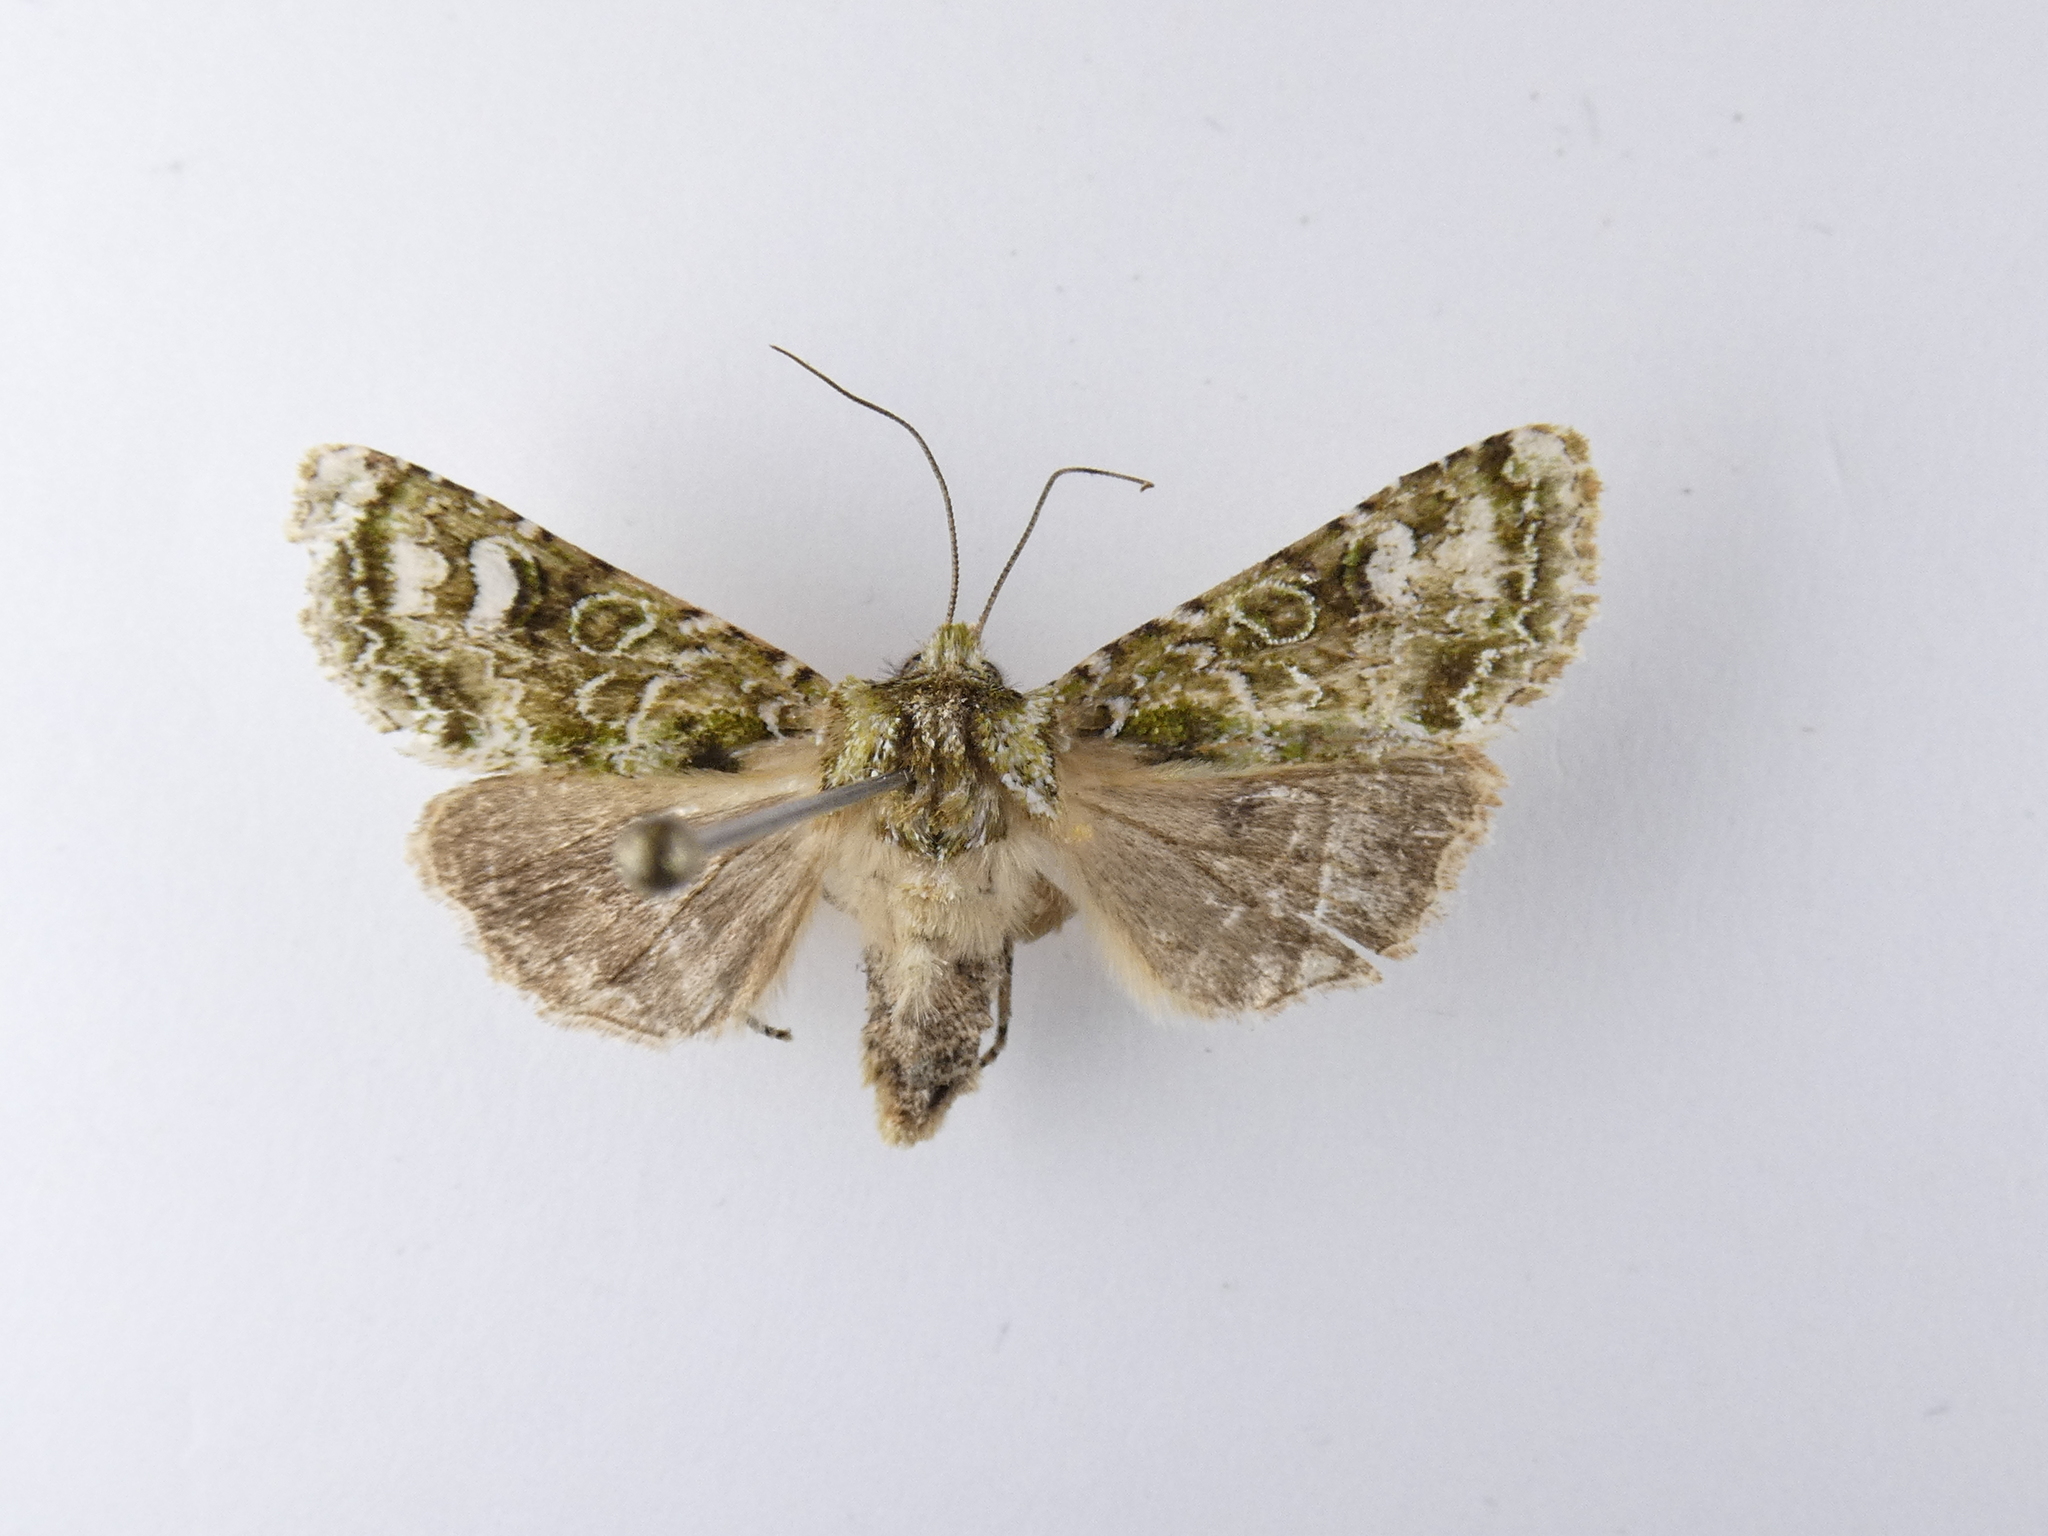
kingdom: Animalia
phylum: Arthropoda
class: Insecta
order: Lepidoptera
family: Noctuidae
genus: Ichneutica
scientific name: Ichneutica
